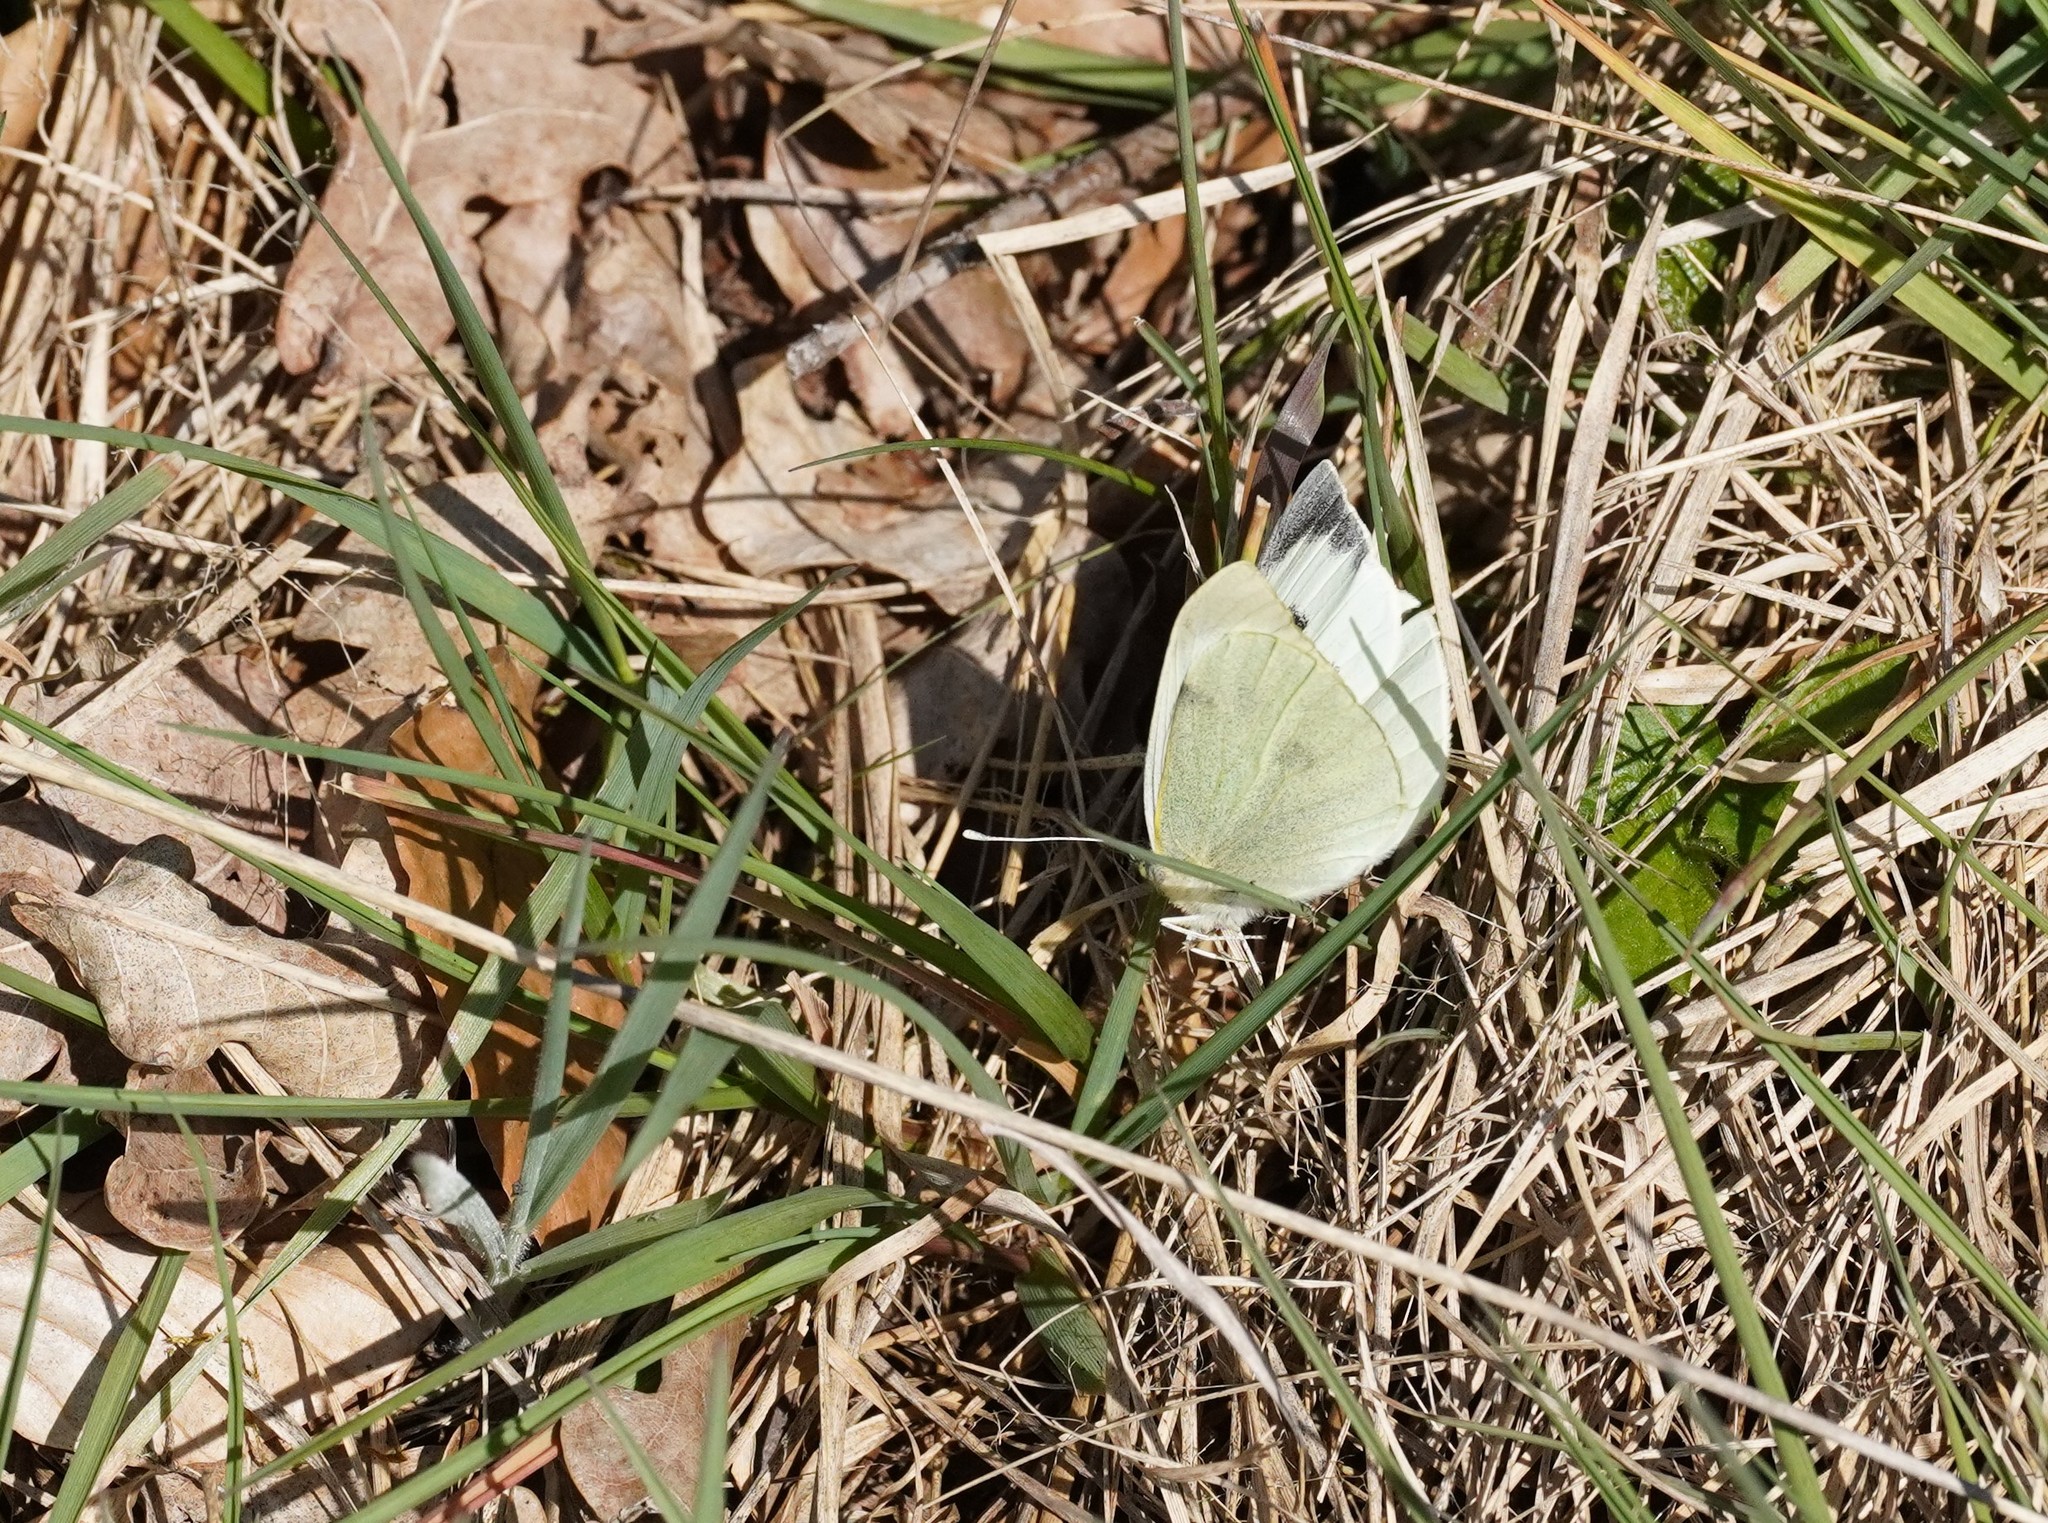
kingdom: Animalia
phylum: Arthropoda
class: Insecta
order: Lepidoptera
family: Pieridae
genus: Pieris
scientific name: Pieris brassicae
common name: Large white
